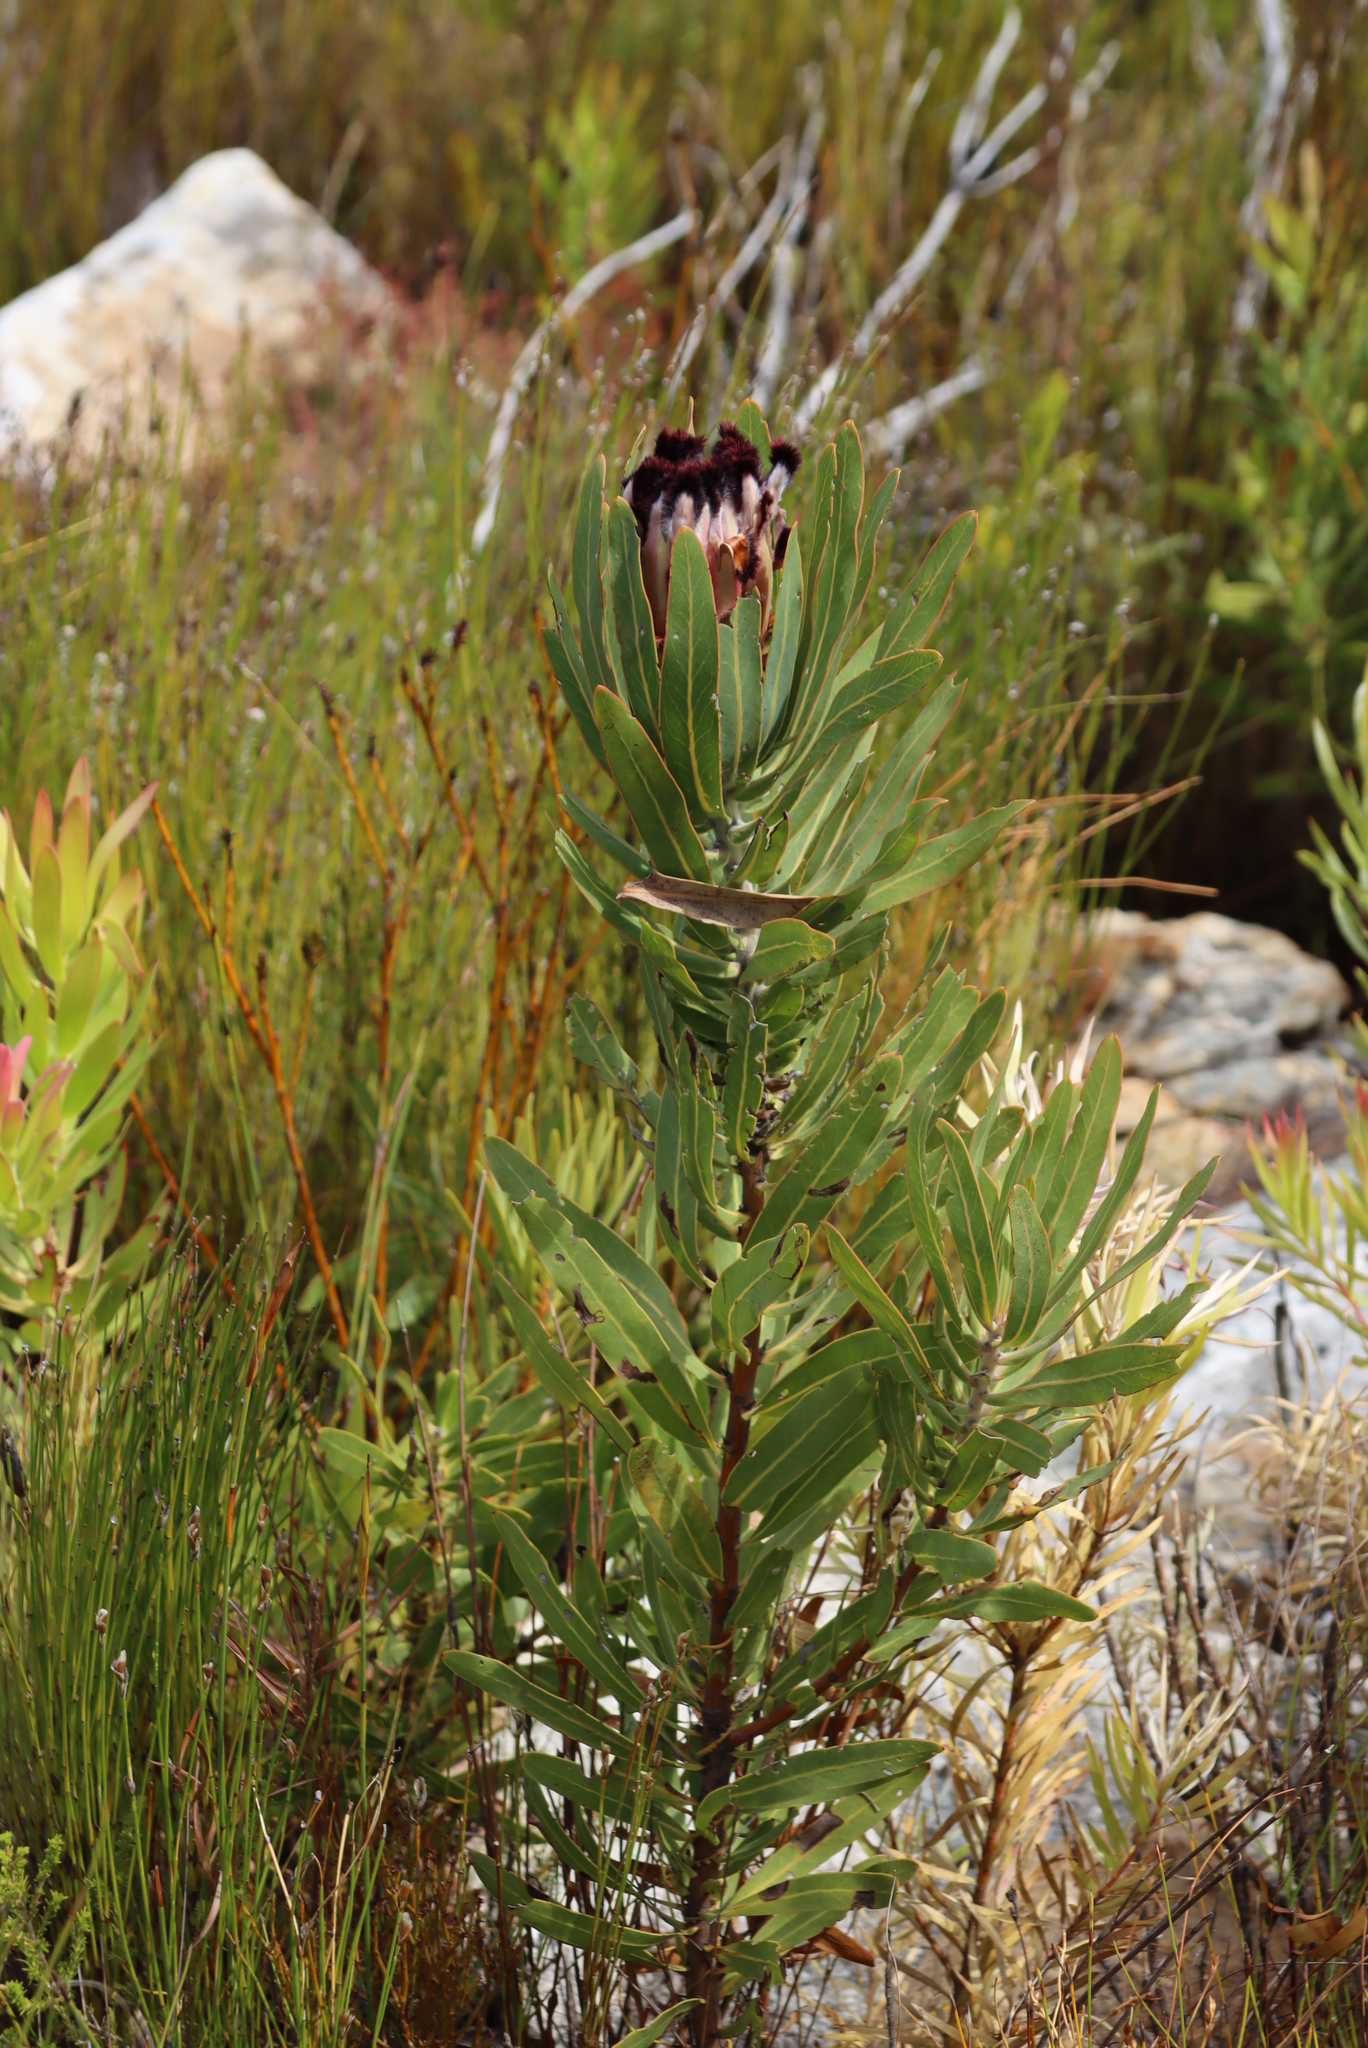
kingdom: Plantae
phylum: Tracheophyta
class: Magnoliopsida
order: Proteales
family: Proteaceae
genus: Protea
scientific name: Protea neriifolia
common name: Blue sugarbush
